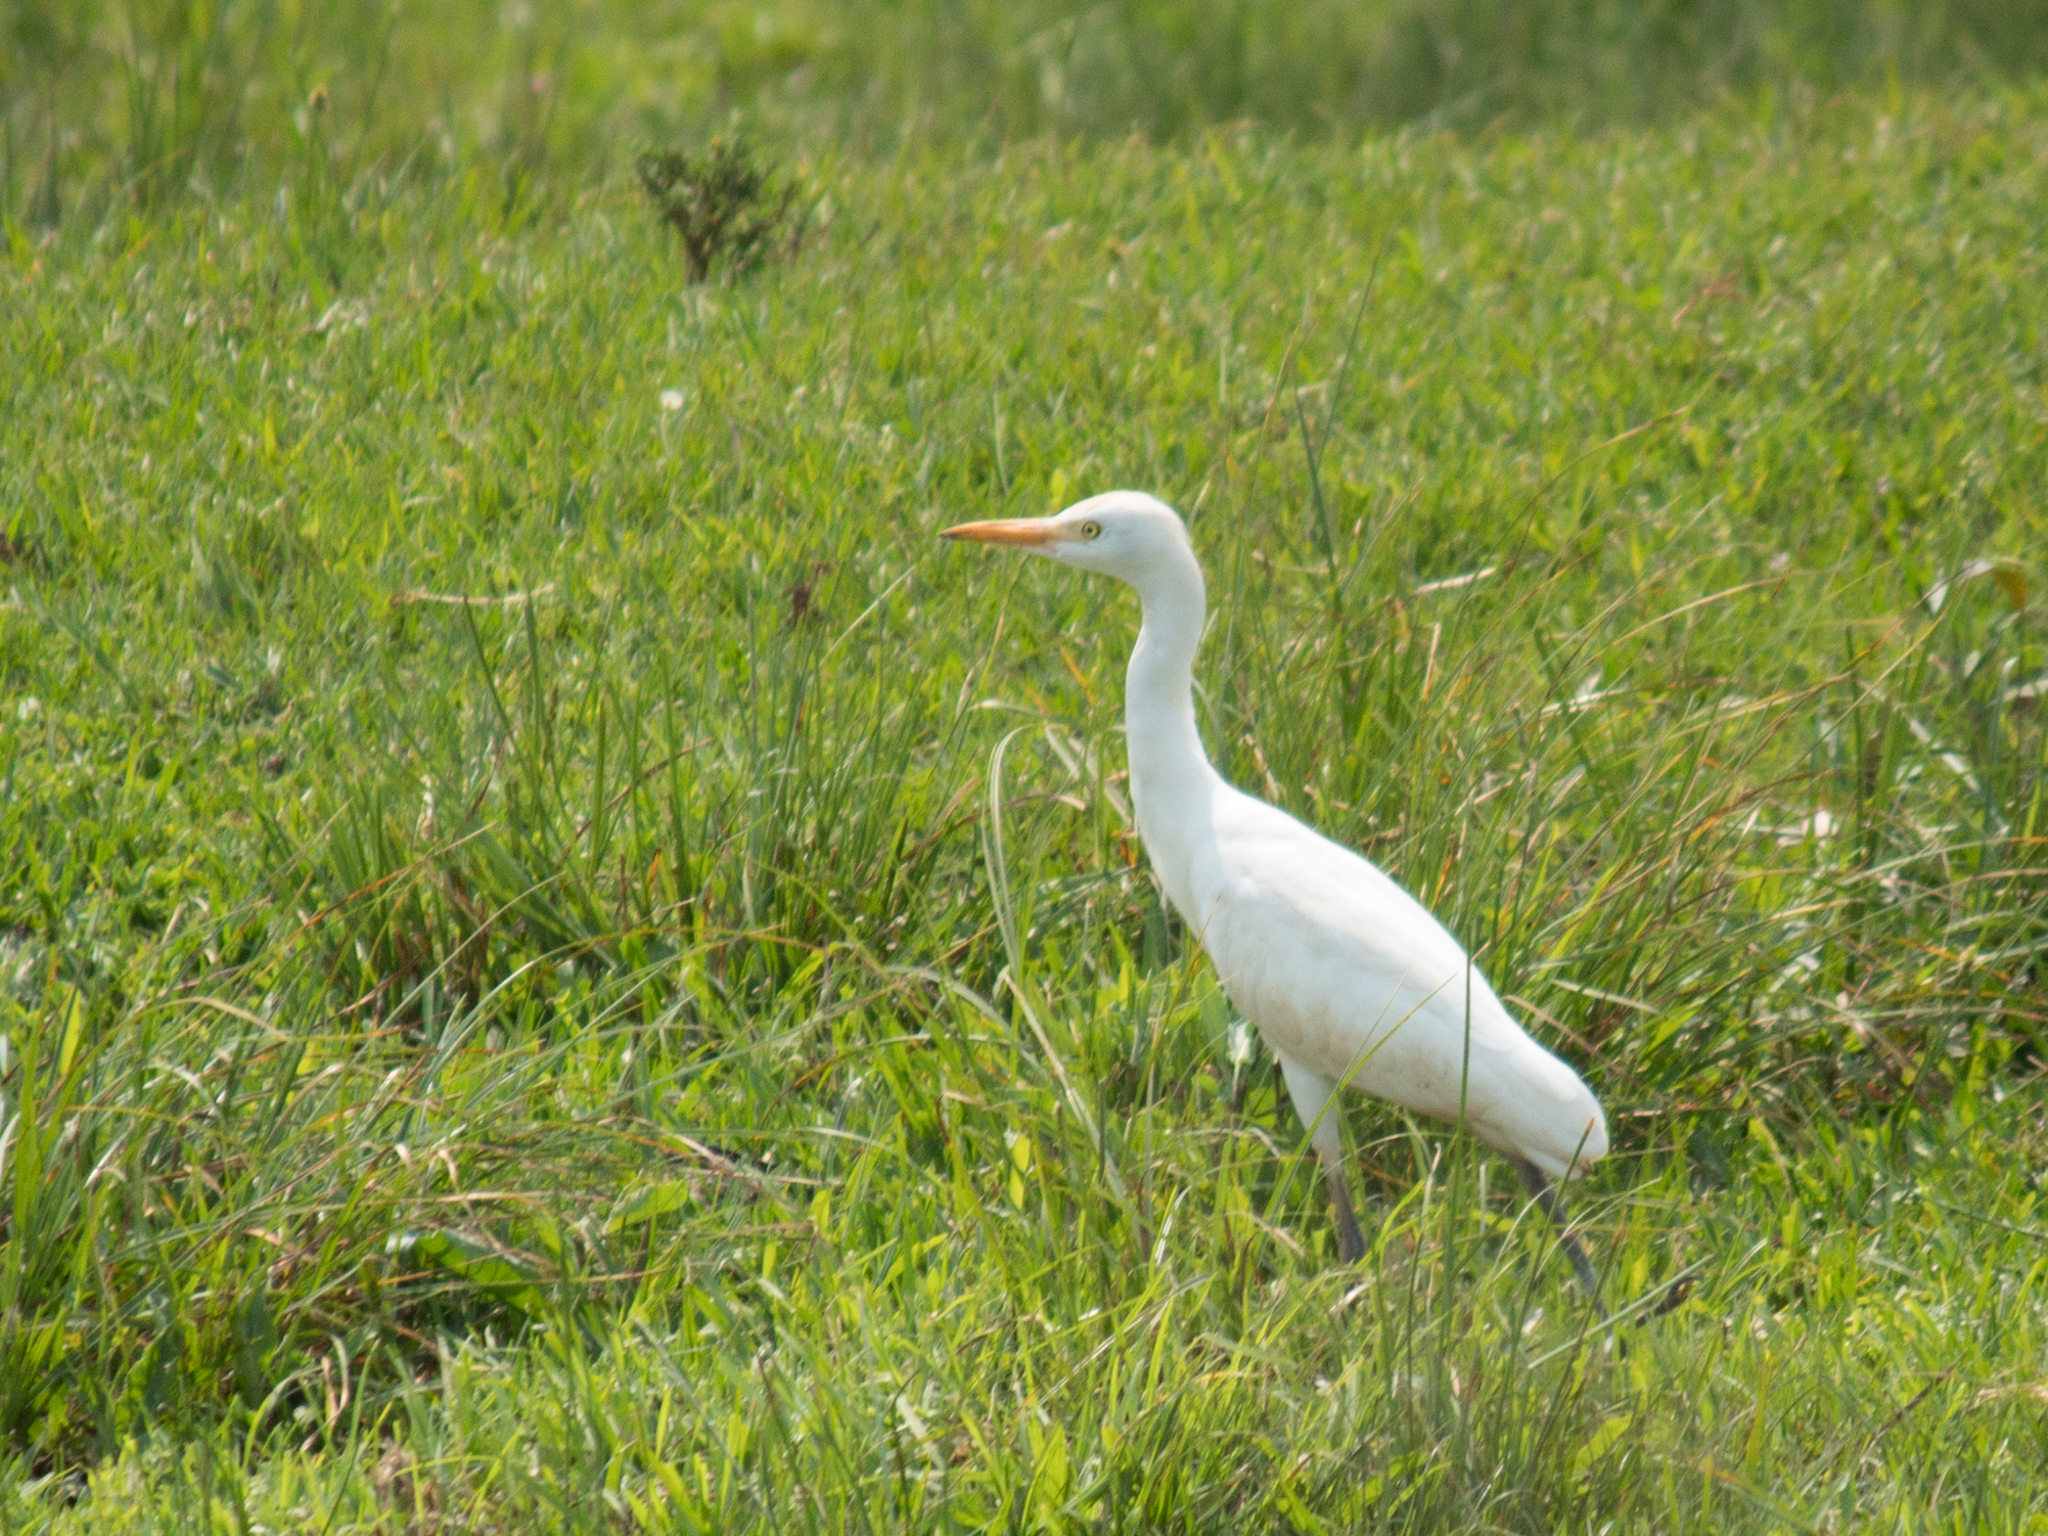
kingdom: Animalia
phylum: Chordata
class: Aves
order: Pelecaniformes
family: Ardeidae
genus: Bubulcus
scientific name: Bubulcus ibis
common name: Cattle egret
